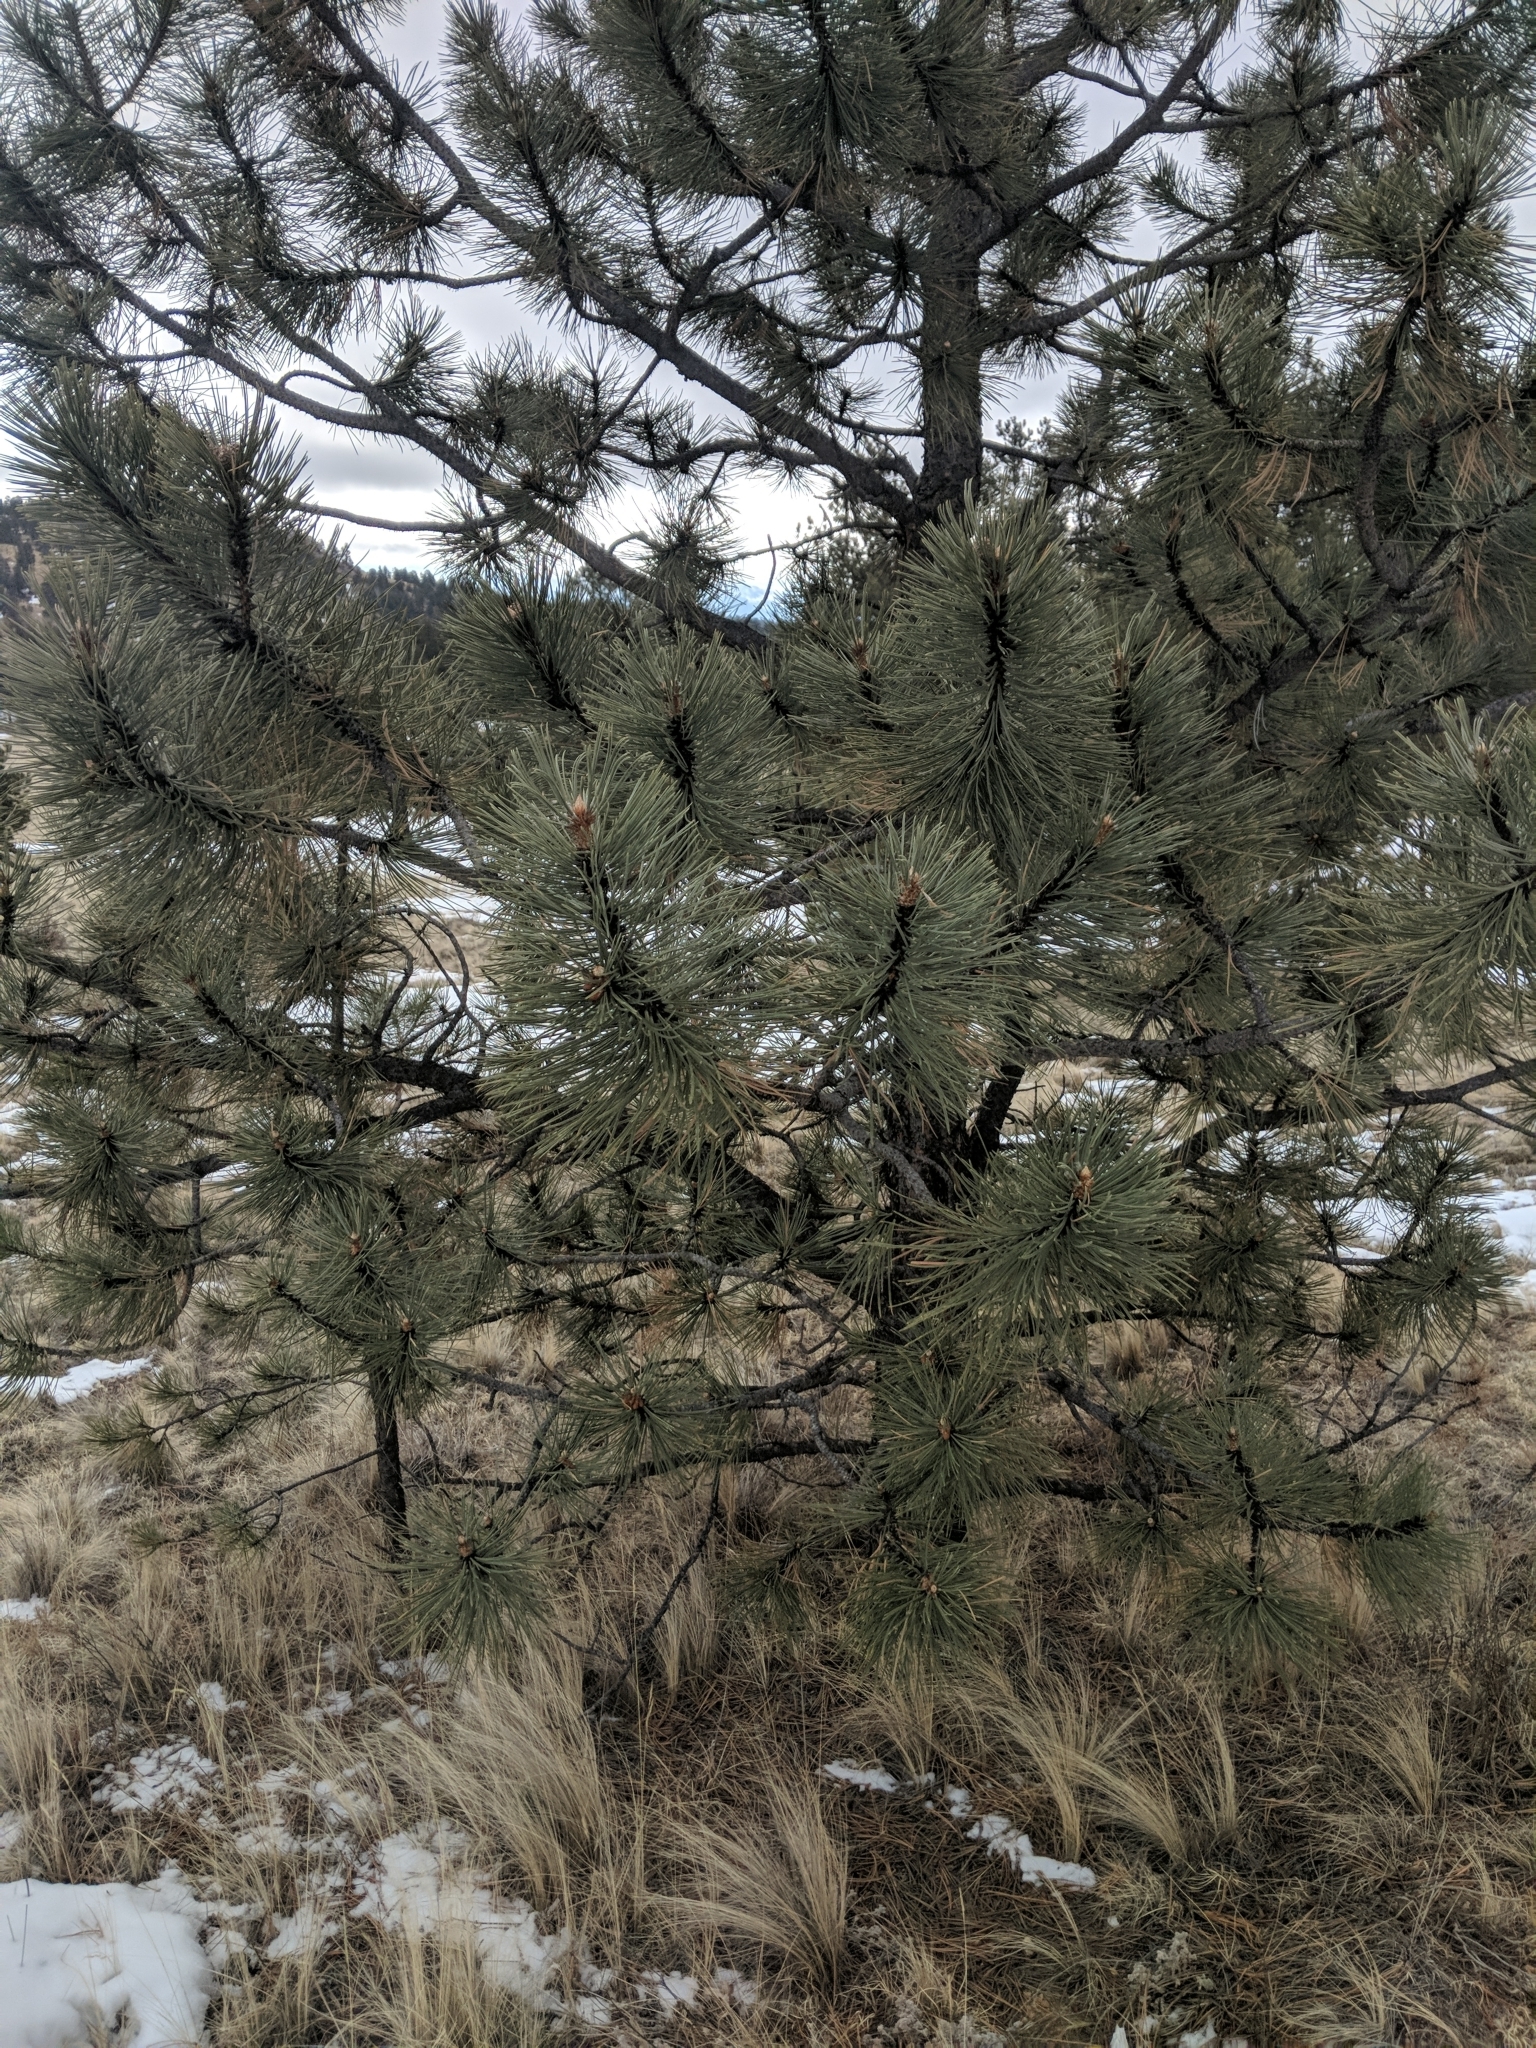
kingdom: Plantae
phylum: Tracheophyta
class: Pinopsida
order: Pinales
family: Pinaceae
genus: Pinus
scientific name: Pinus ponderosa
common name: Western yellow-pine
